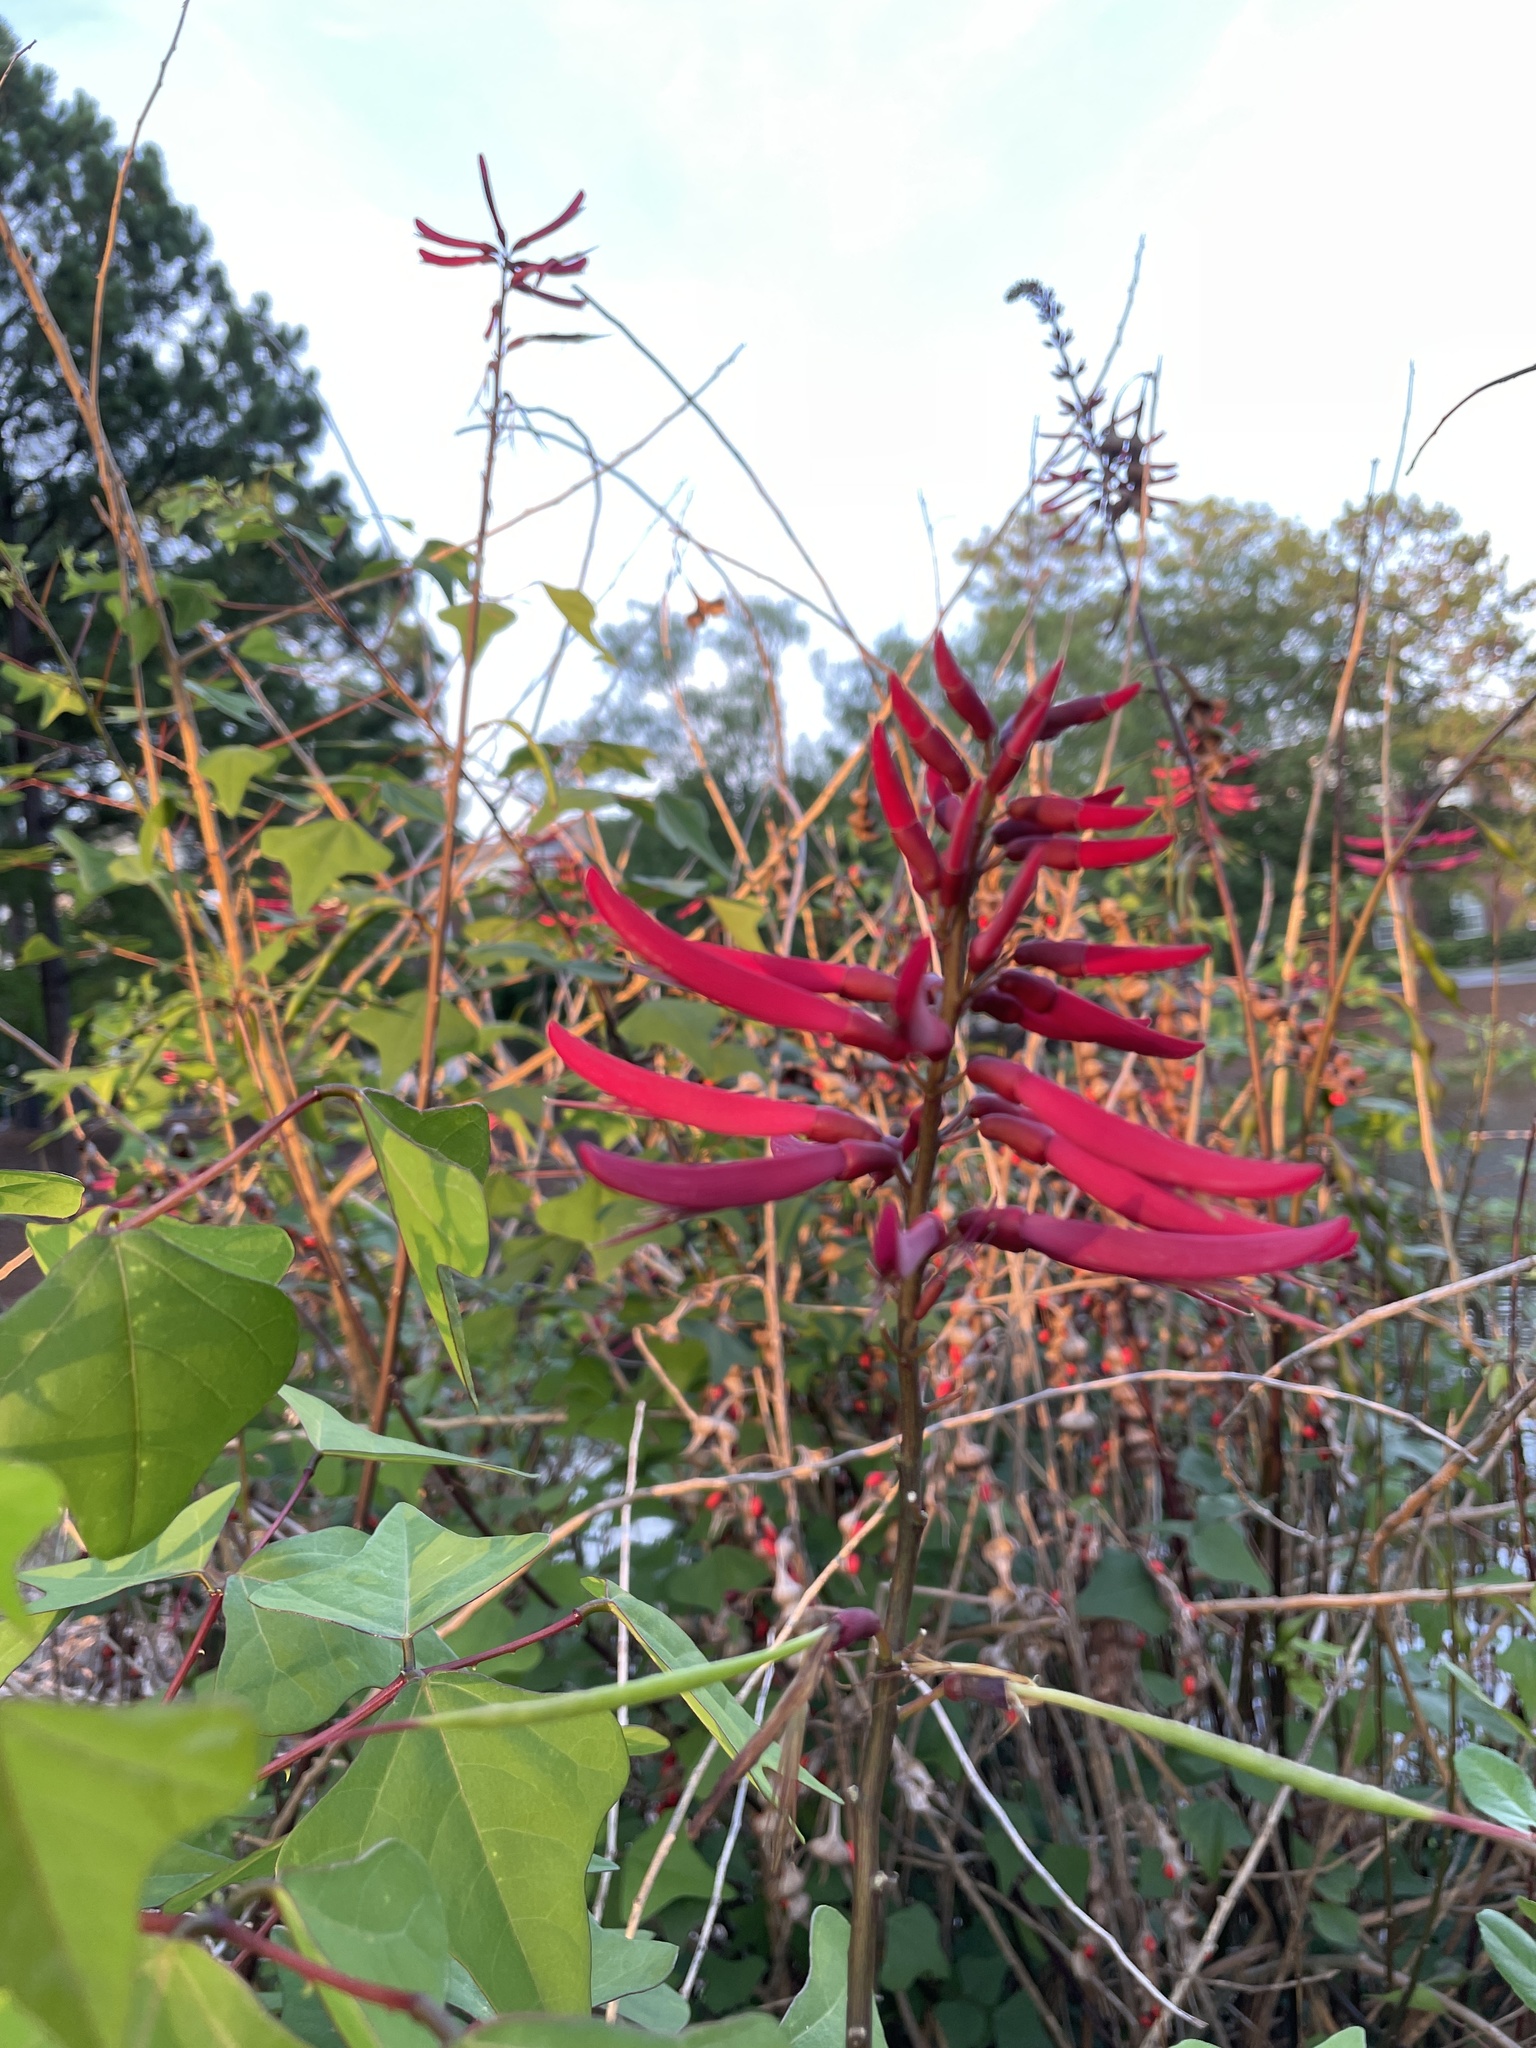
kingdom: Plantae
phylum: Tracheophyta
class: Magnoliopsida
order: Fabales
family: Fabaceae
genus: Erythrina
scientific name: Erythrina herbacea
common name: Coral-bean
